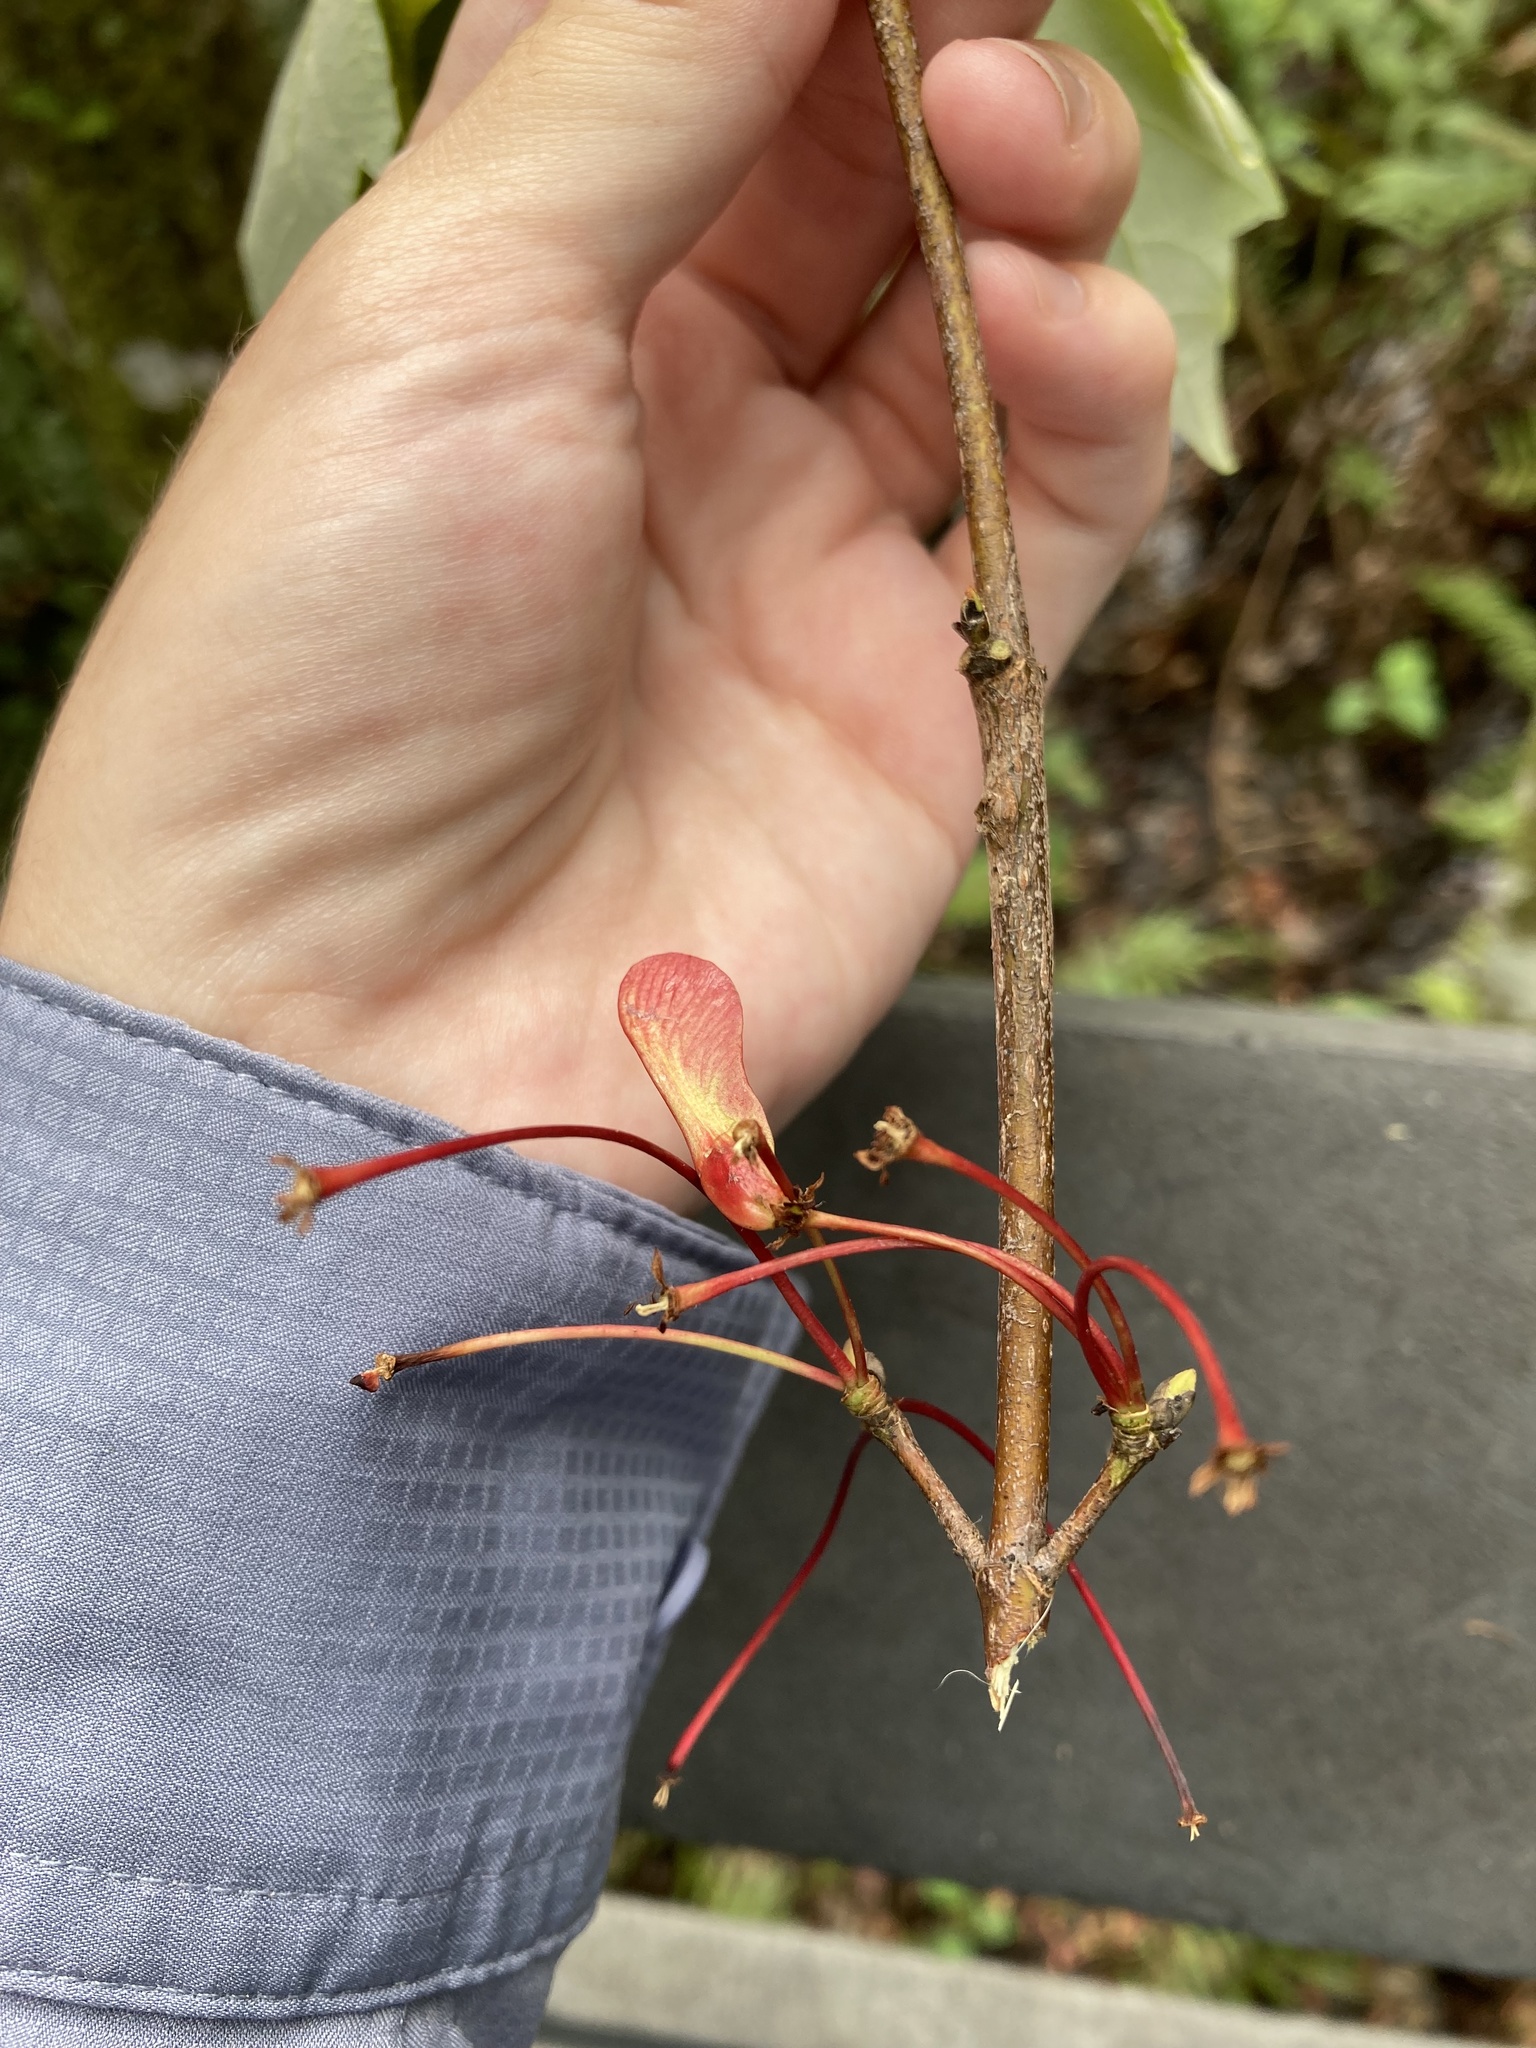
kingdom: Plantae
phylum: Tracheophyta
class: Magnoliopsida
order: Sapindales
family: Sapindaceae
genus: Acer
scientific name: Acer rubrum
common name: Red maple
